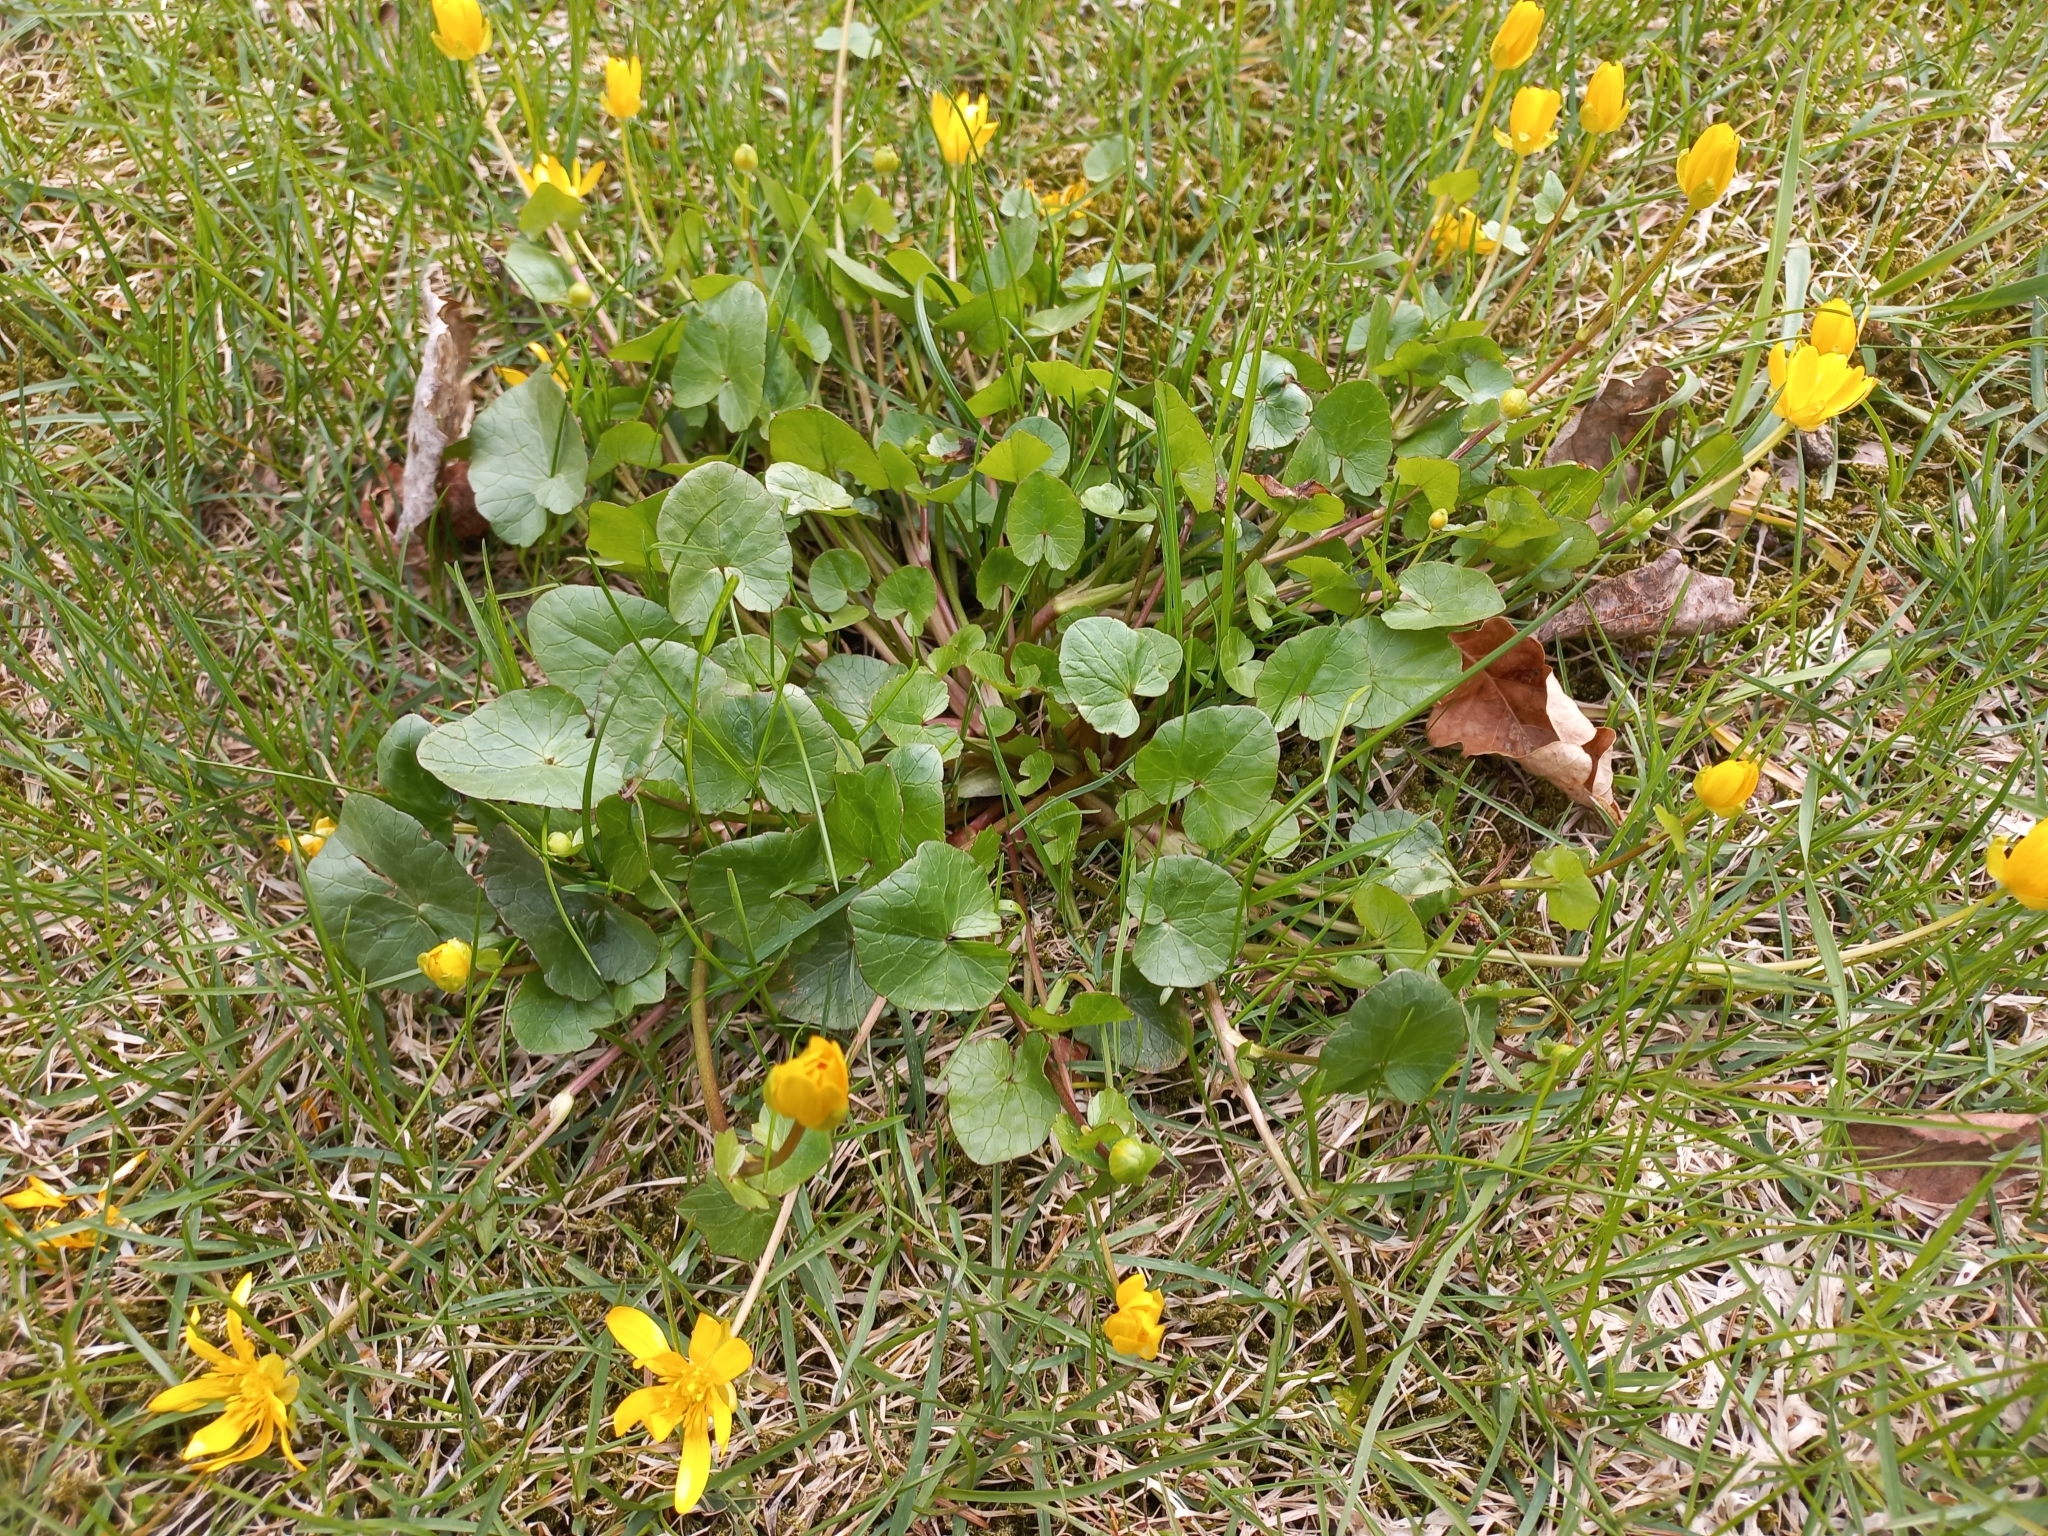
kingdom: Plantae
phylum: Tracheophyta
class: Magnoliopsida
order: Ranunculales
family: Ranunculaceae
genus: Ficaria
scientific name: Ficaria verna
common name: Lesser celandine
